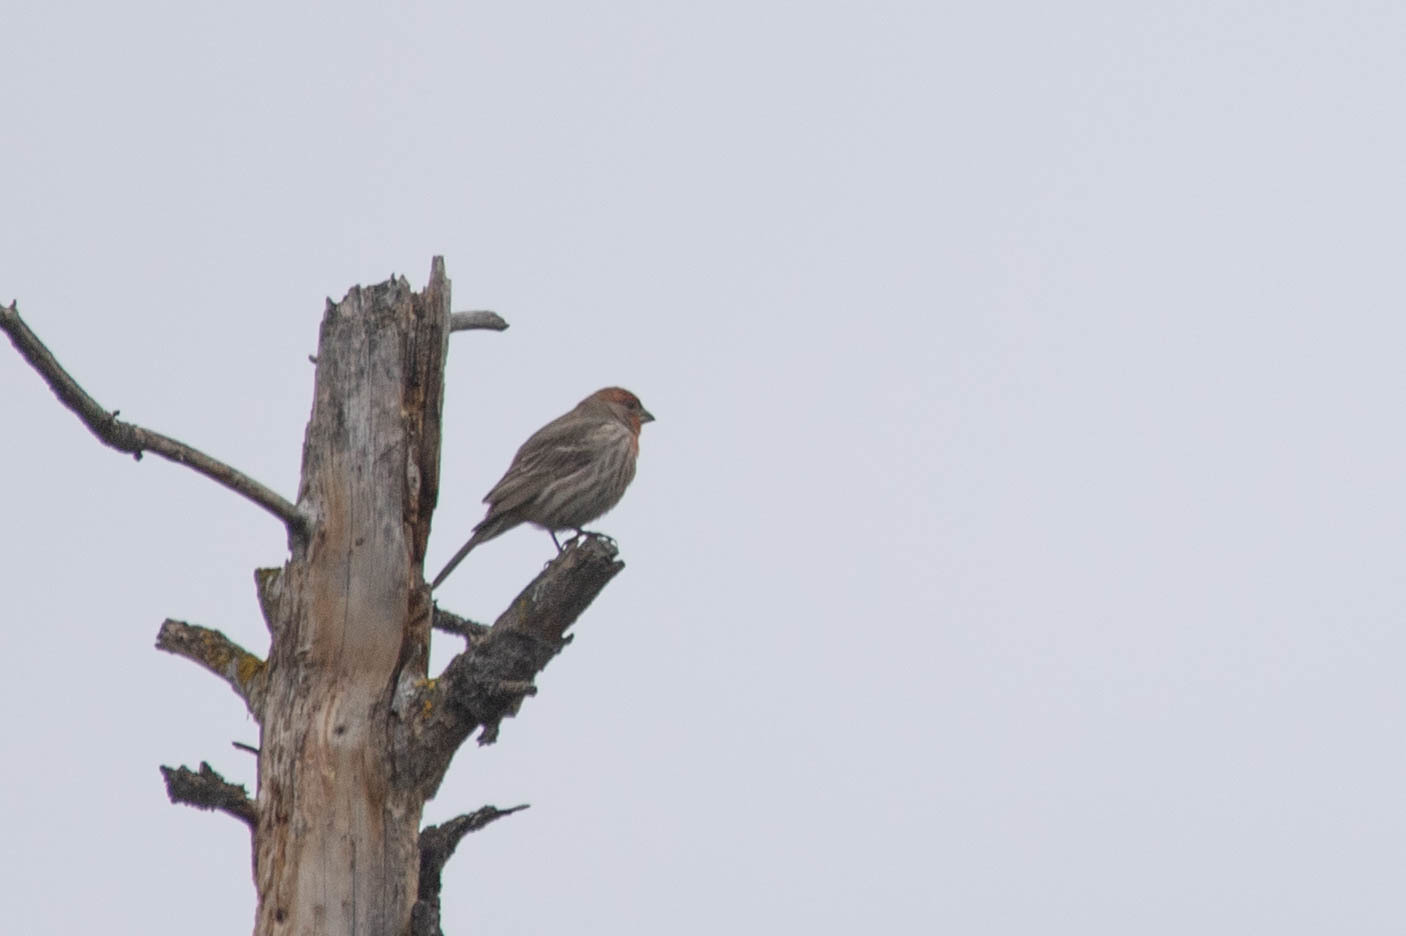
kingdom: Animalia
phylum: Chordata
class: Aves
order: Passeriformes
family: Fringillidae
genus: Haemorhous
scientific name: Haemorhous mexicanus
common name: House finch
